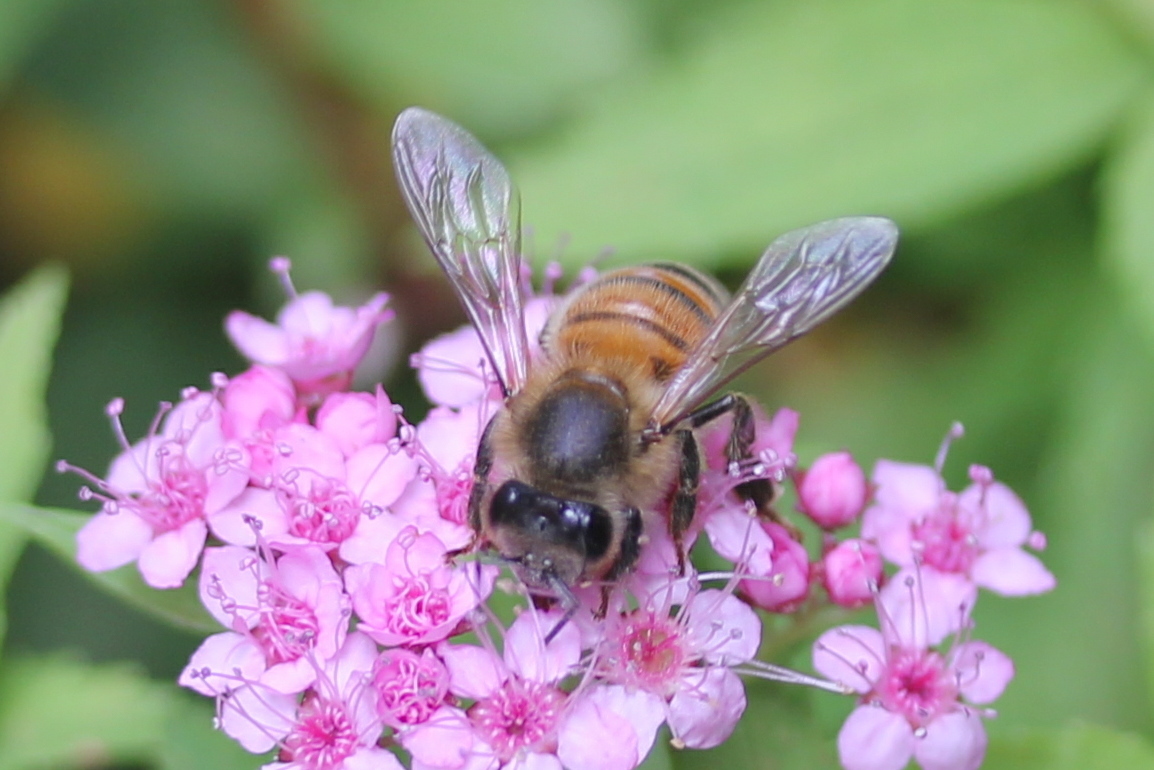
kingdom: Animalia
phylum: Arthropoda
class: Insecta
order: Hymenoptera
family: Apidae
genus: Apis
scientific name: Apis mellifera
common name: Honey bee
